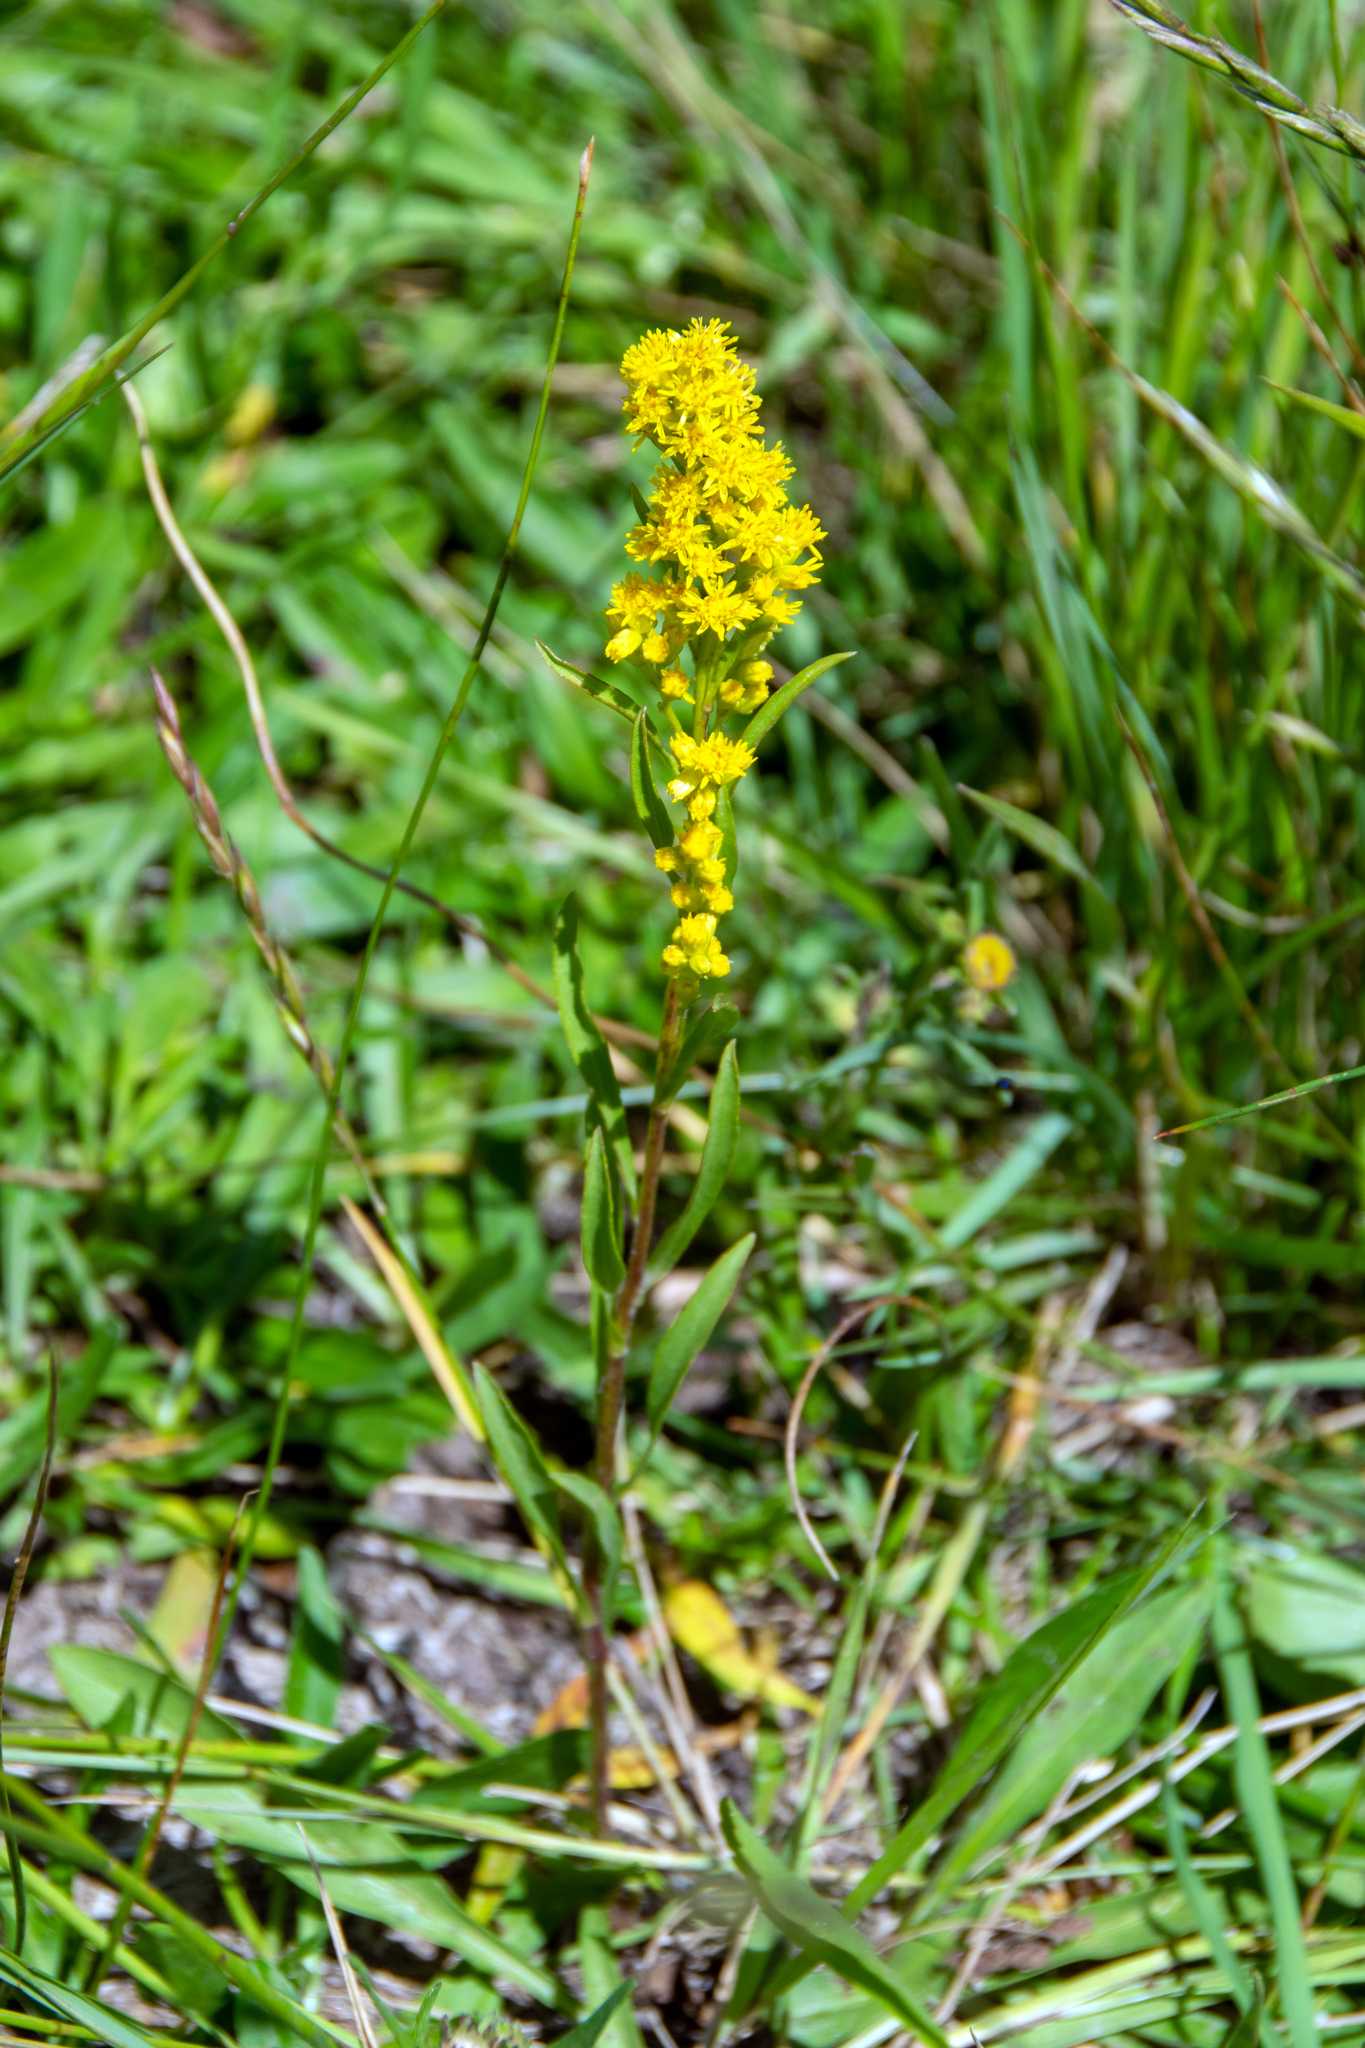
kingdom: Plantae
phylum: Tracheophyta
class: Magnoliopsida
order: Asterales
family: Asteraceae
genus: Solidago
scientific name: Solidago simplex
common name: Sticky goldenrod
